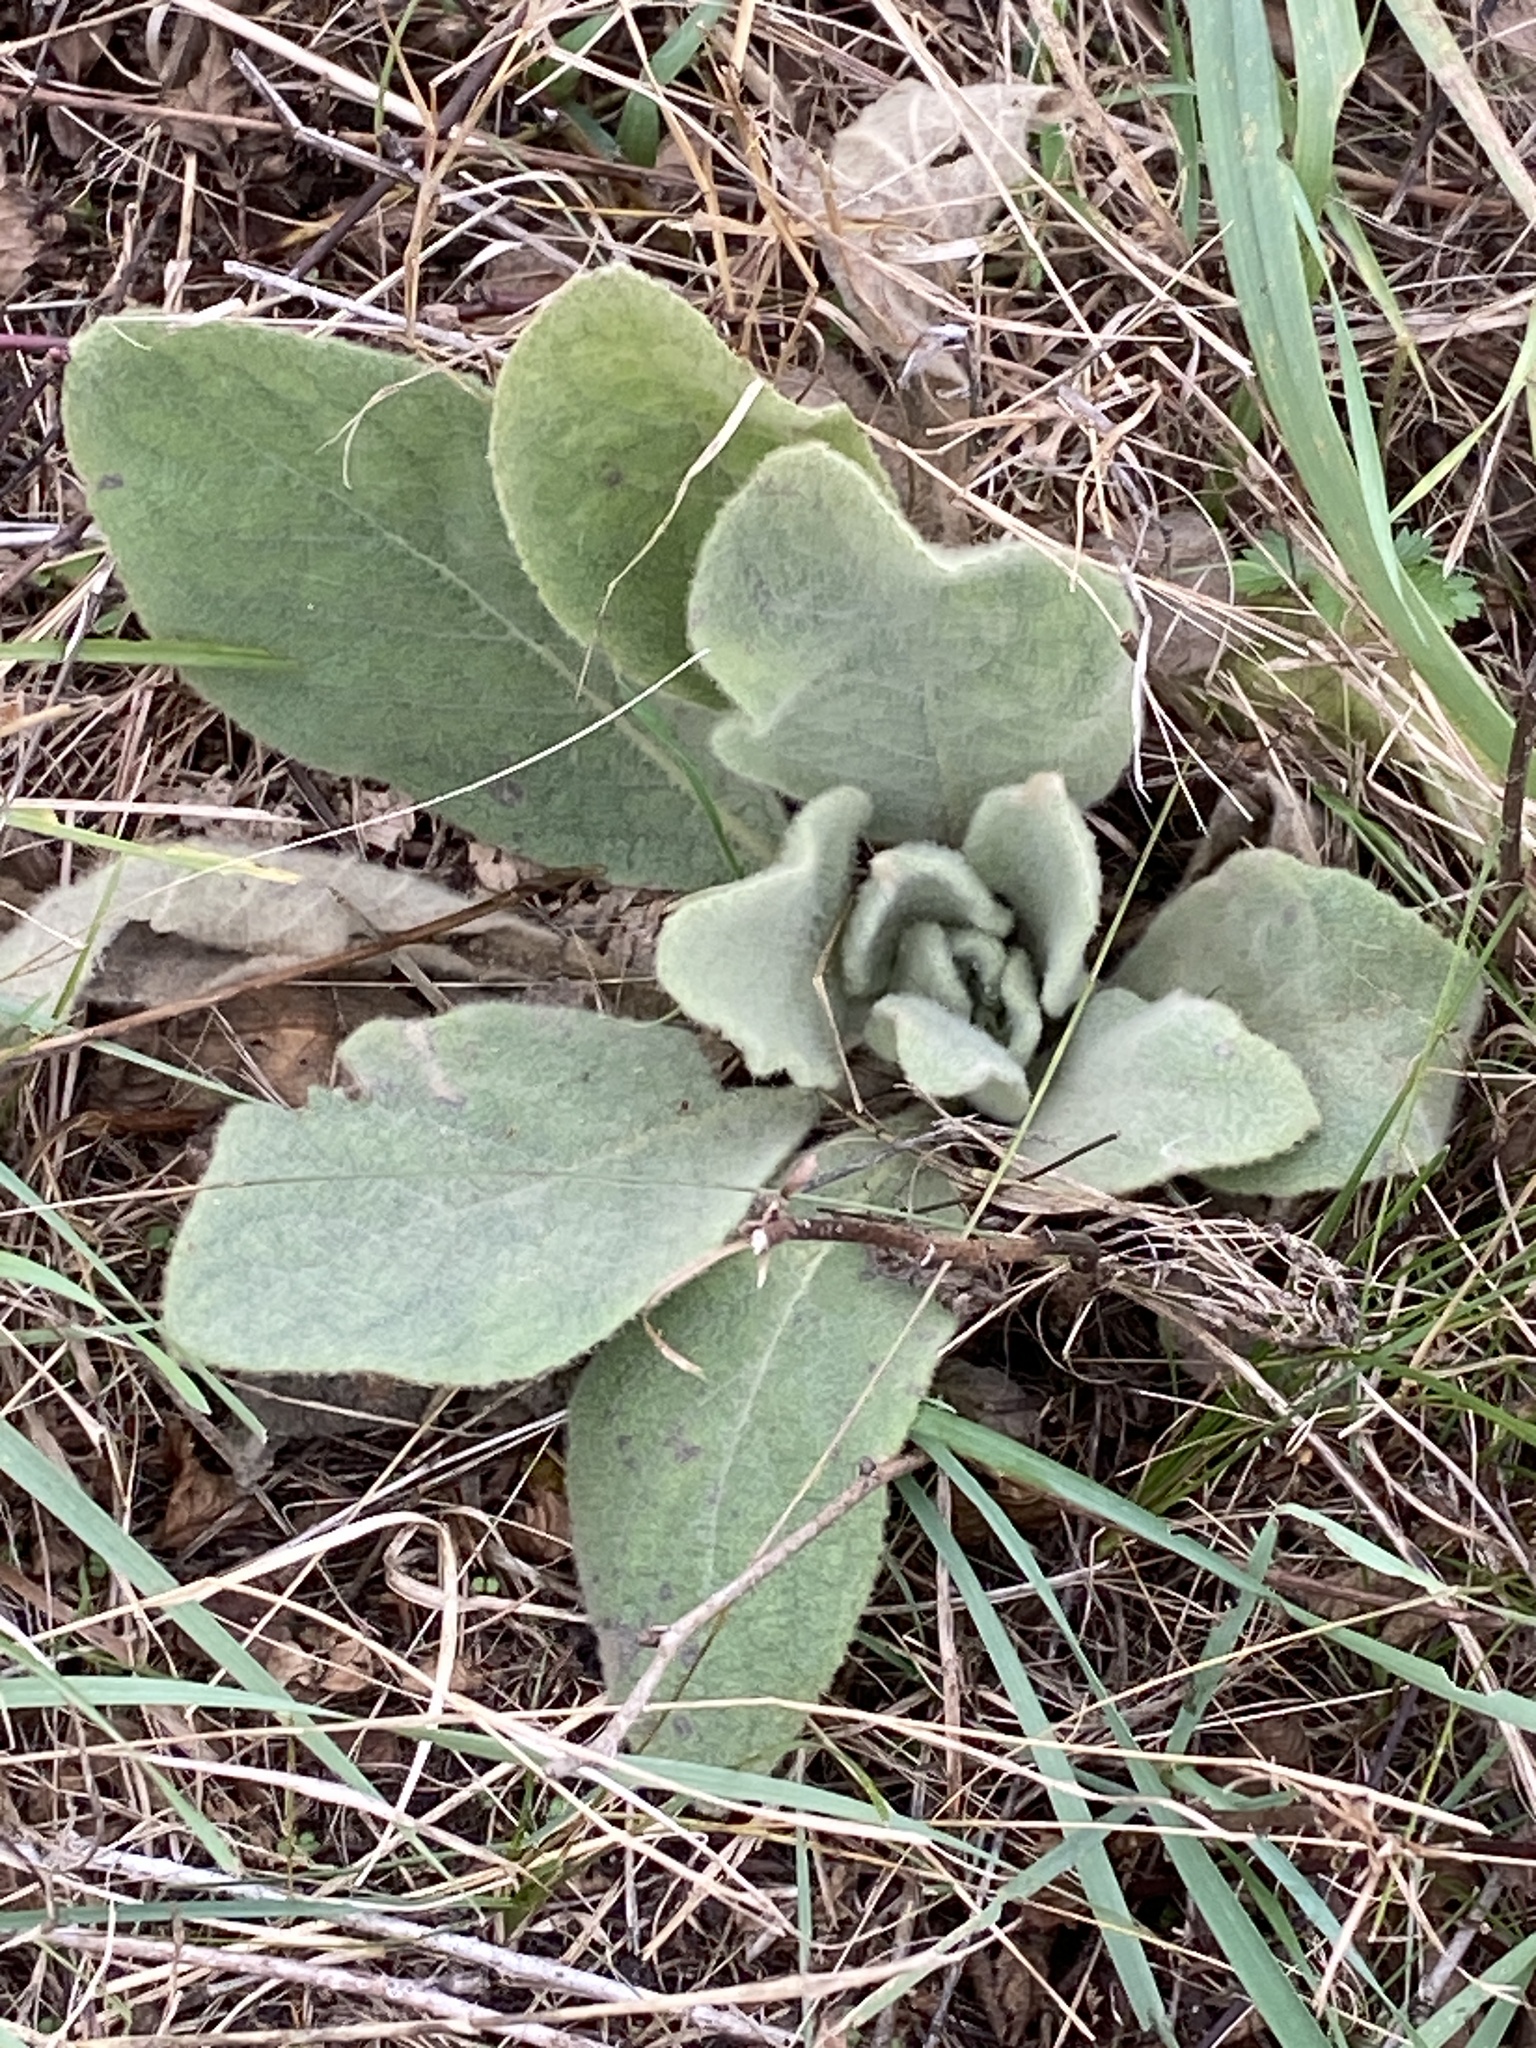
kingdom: Plantae
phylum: Tracheophyta
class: Magnoliopsida
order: Lamiales
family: Scrophulariaceae
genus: Verbascum
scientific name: Verbascum thapsus
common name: Common mullein
